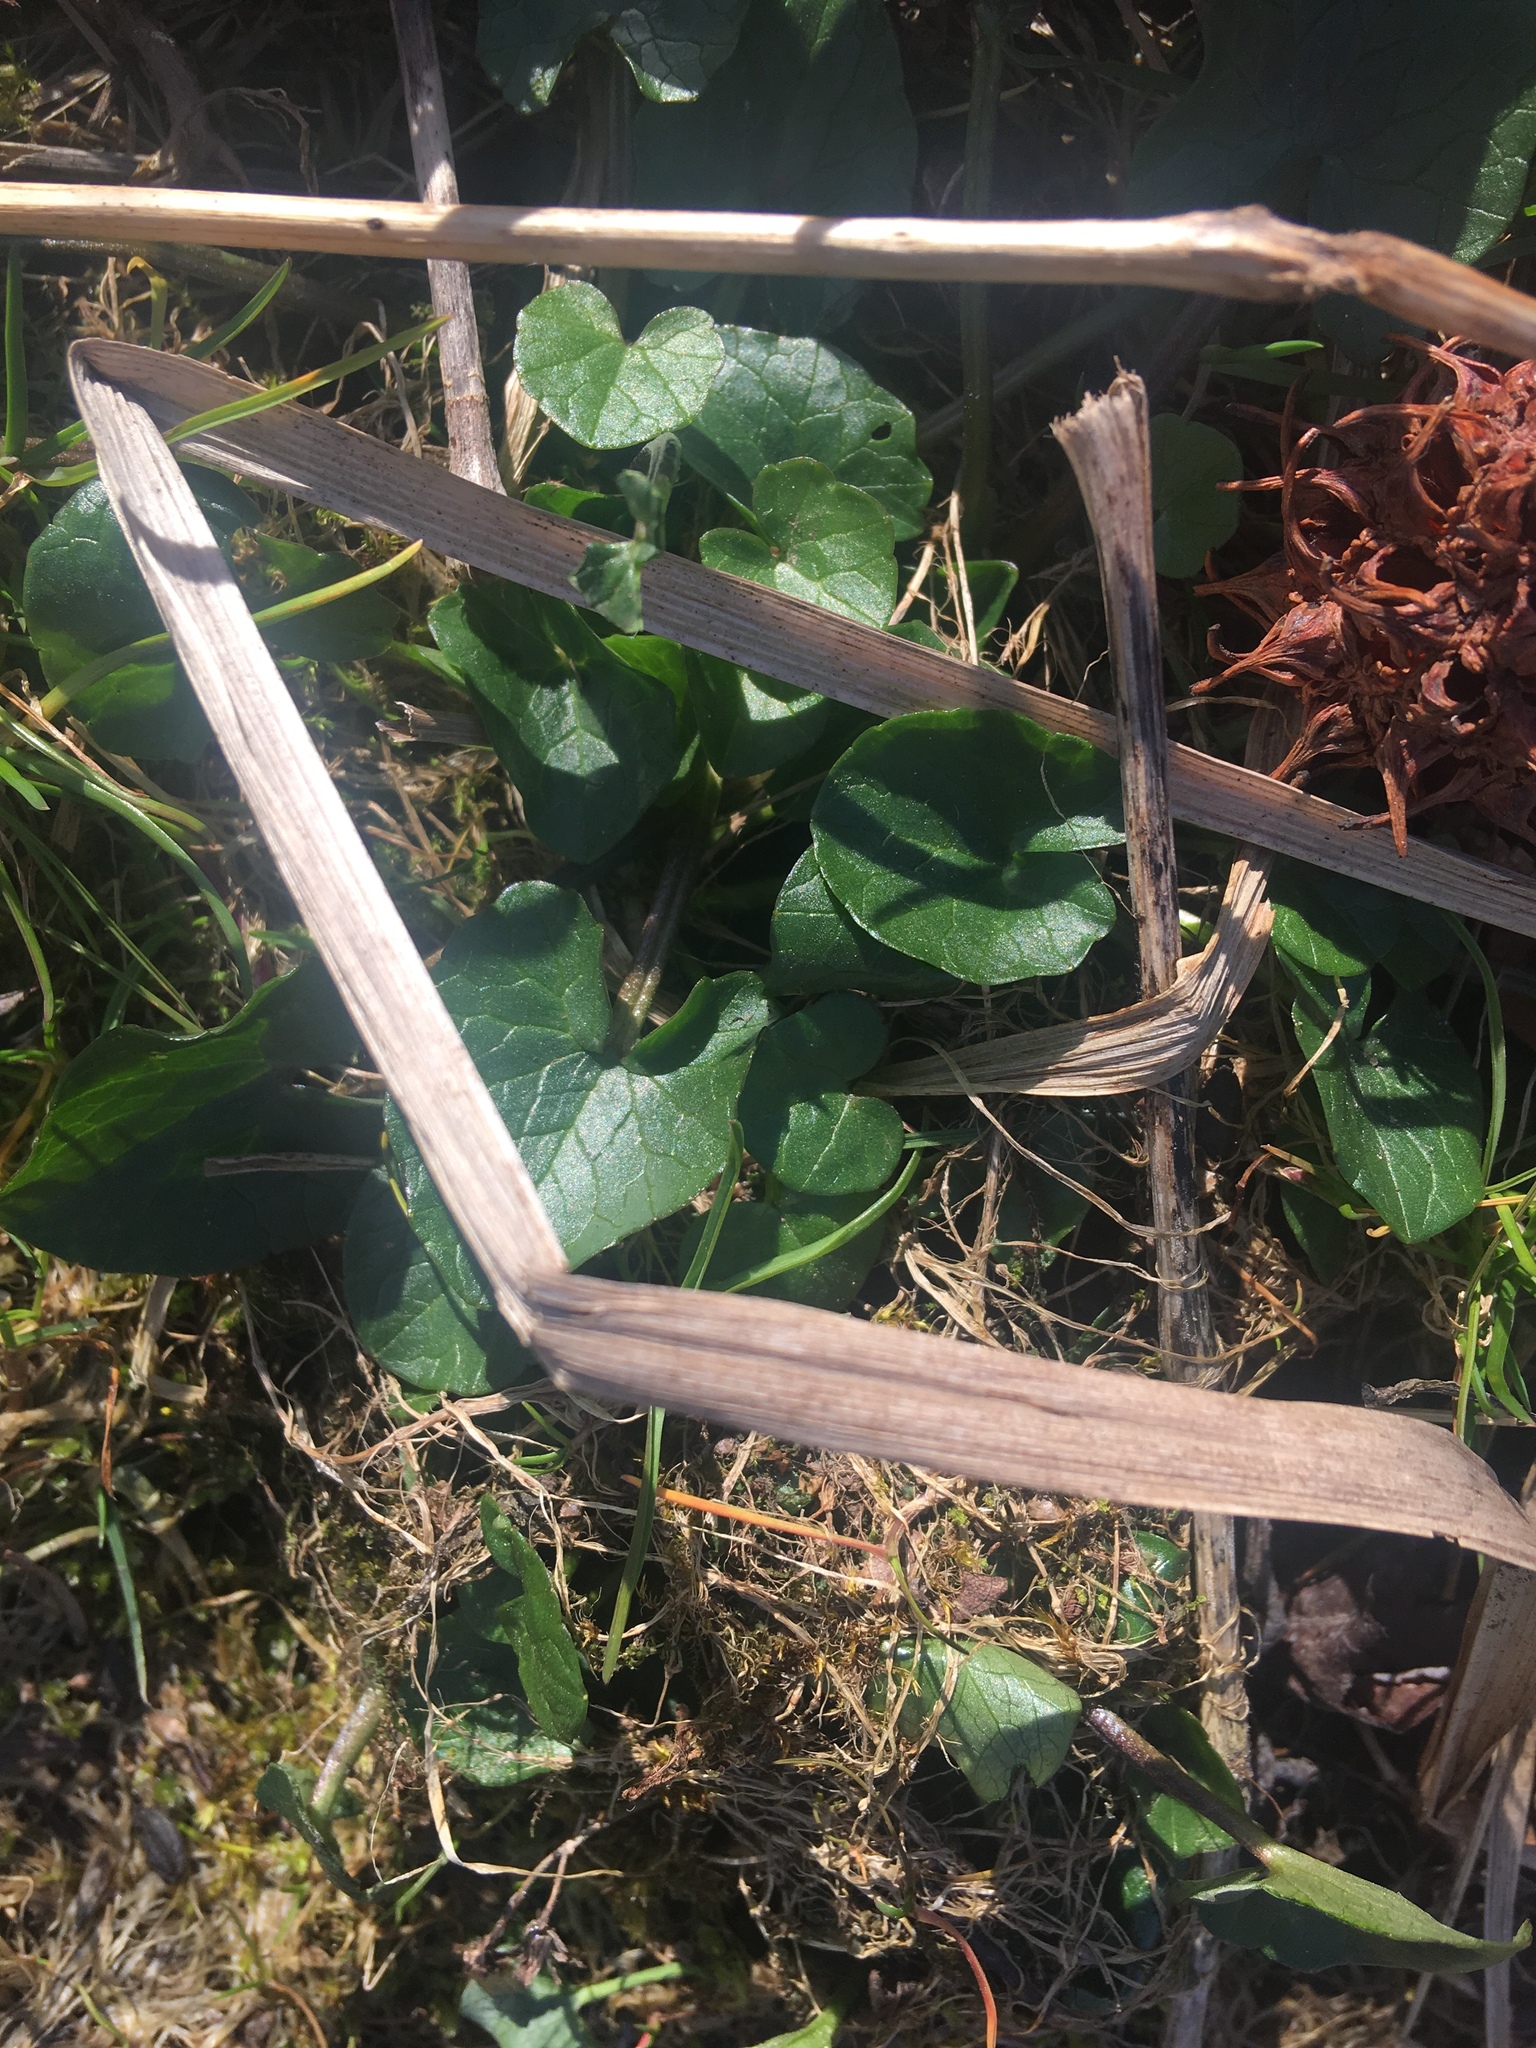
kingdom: Plantae
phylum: Tracheophyta
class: Magnoliopsida
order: Ranunculales
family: Ranunculaceae
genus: Ficaria
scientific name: Ficaria verna
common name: Lesser celandine
